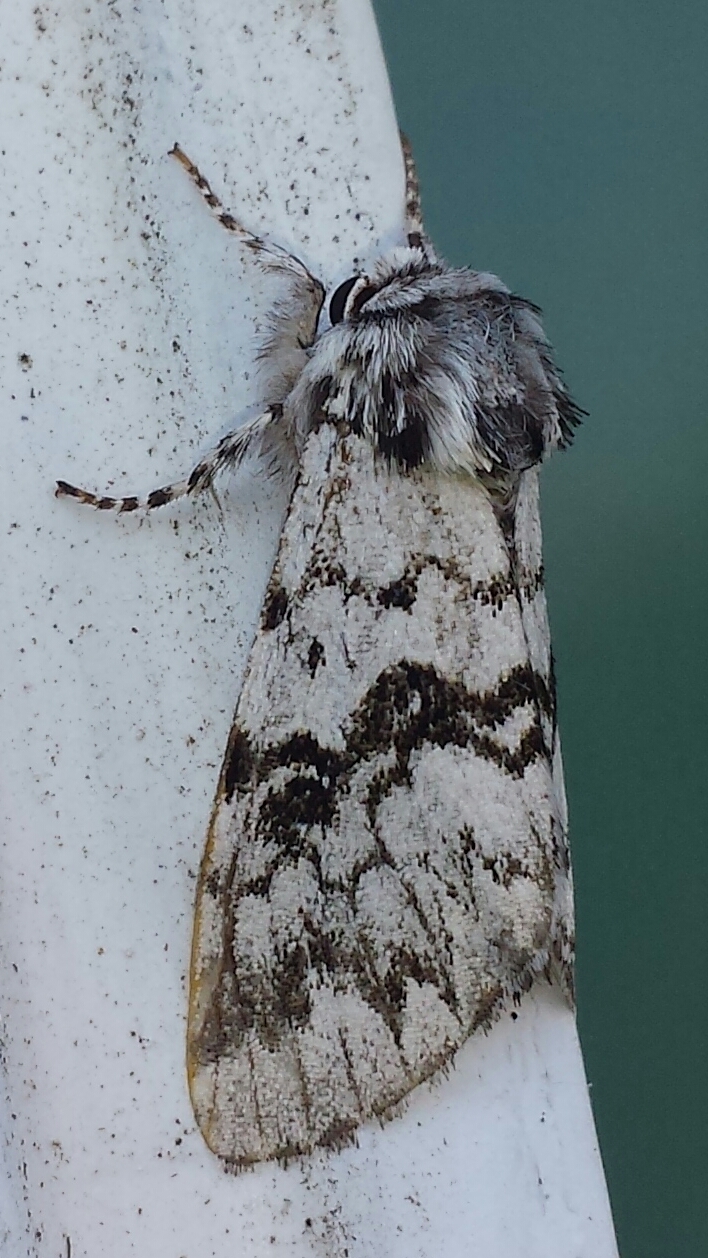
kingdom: Animalia
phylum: Arthropoda
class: Insecta
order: Lepidoptera
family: Noctuidae
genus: Panthea
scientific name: Panthea acronyctoides
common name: Black zigzag moth
